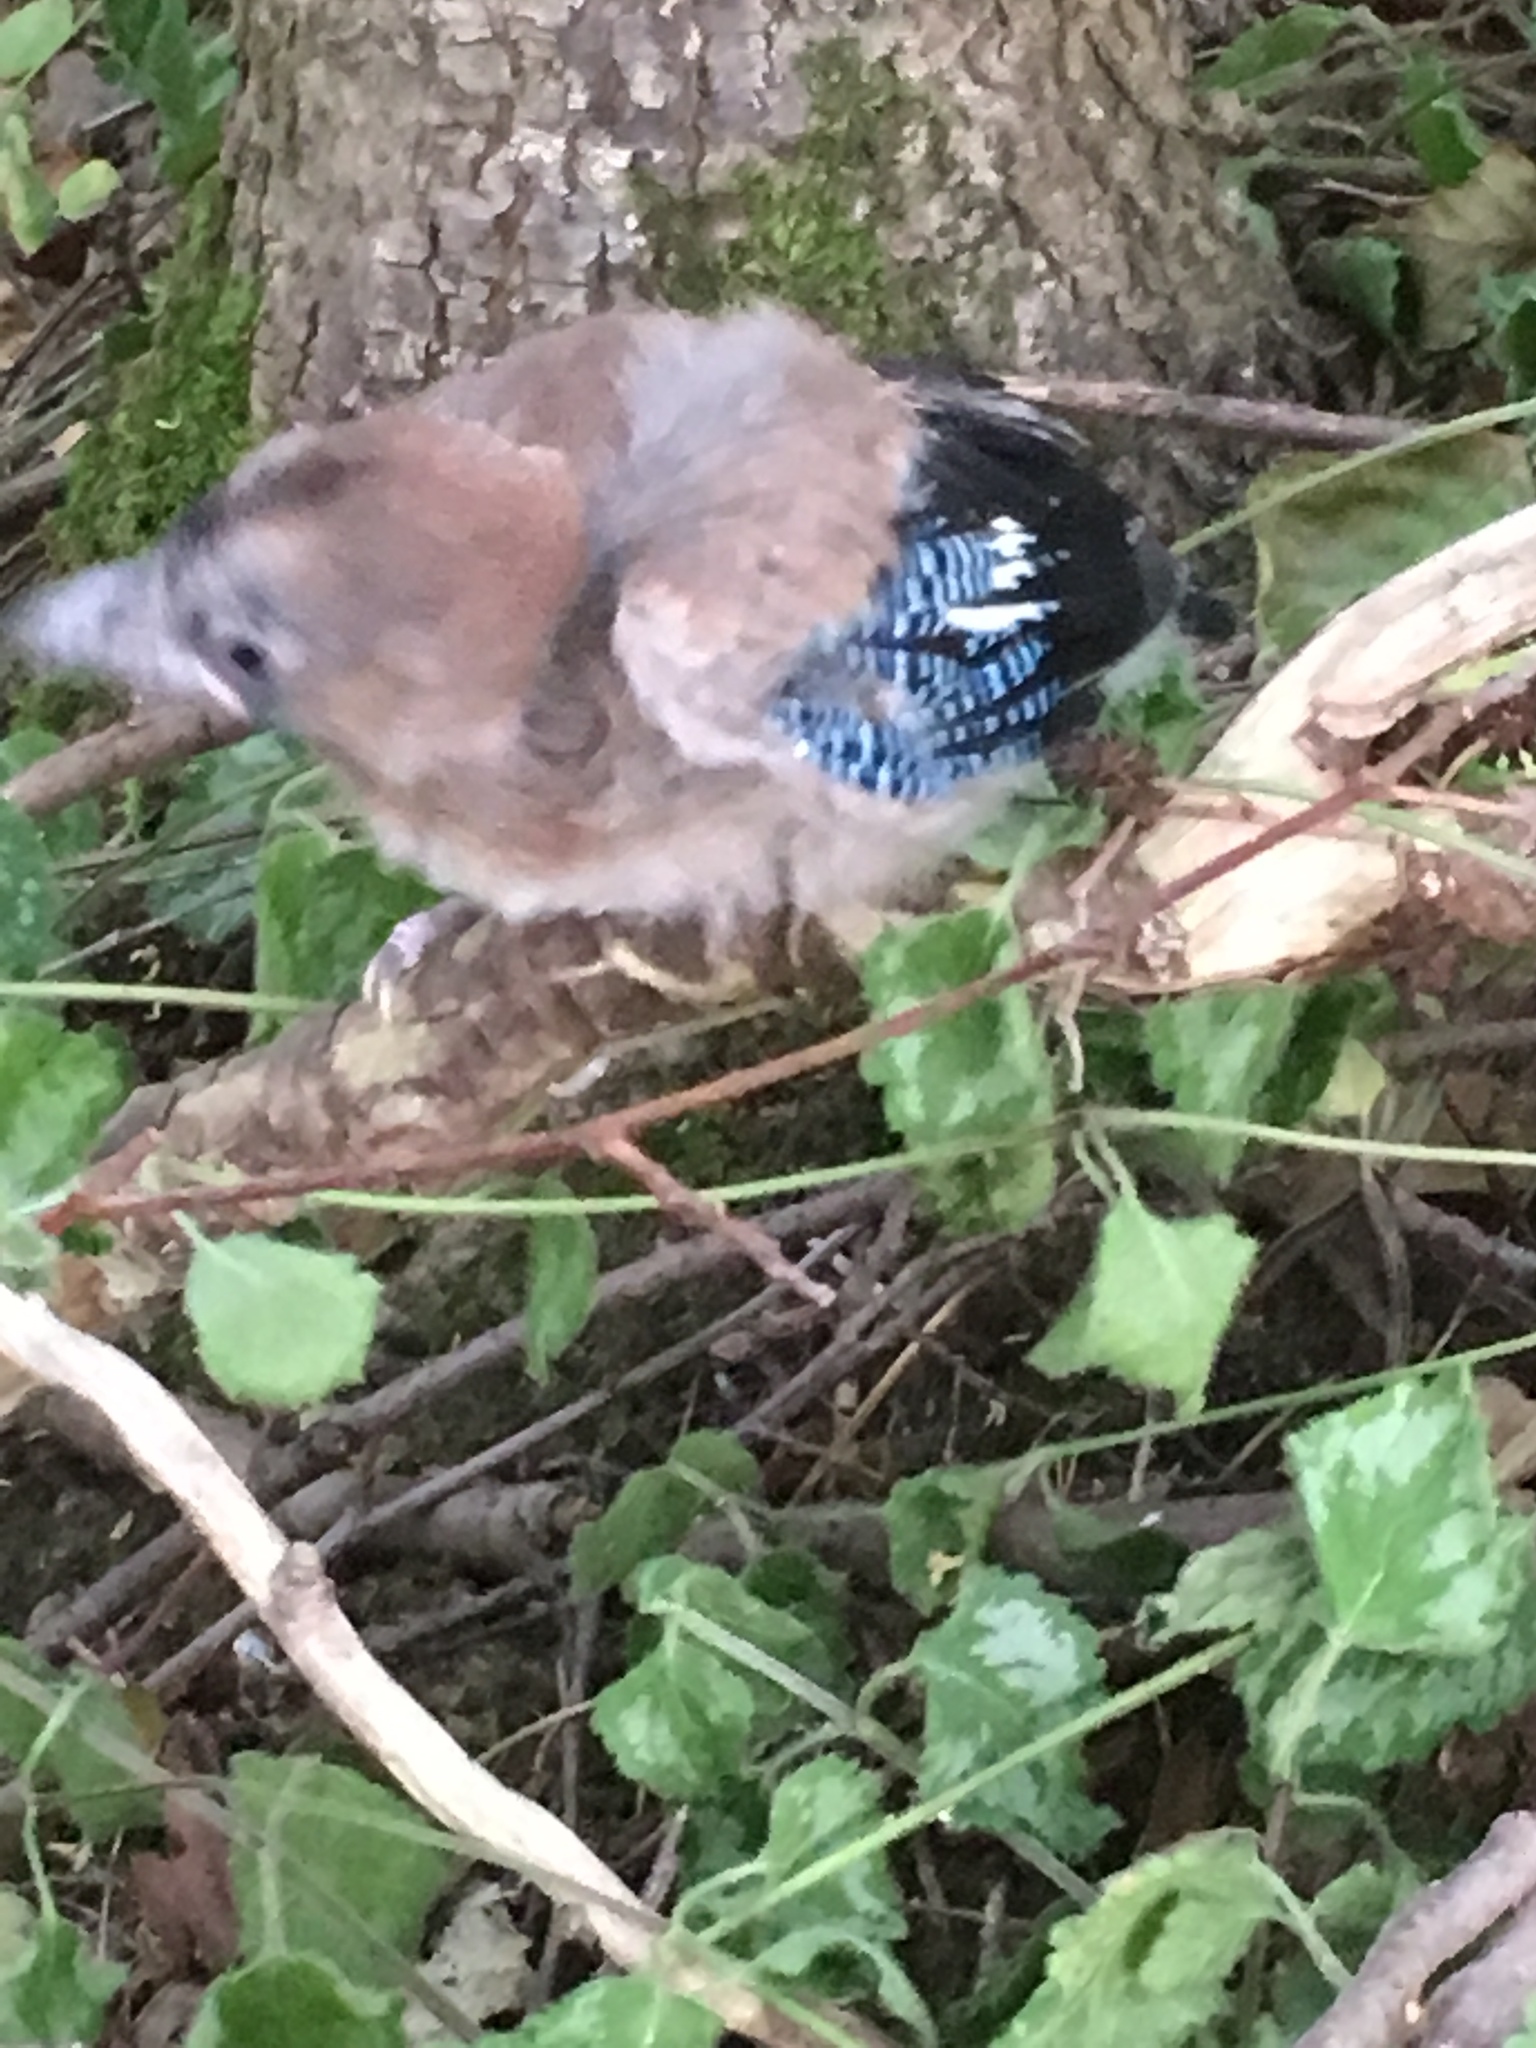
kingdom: Animalia
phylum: Chordata
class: Aves
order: Passeriformes
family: Corvidae
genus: Garrulus
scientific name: Garrulus glandarius
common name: Eurasian jay
